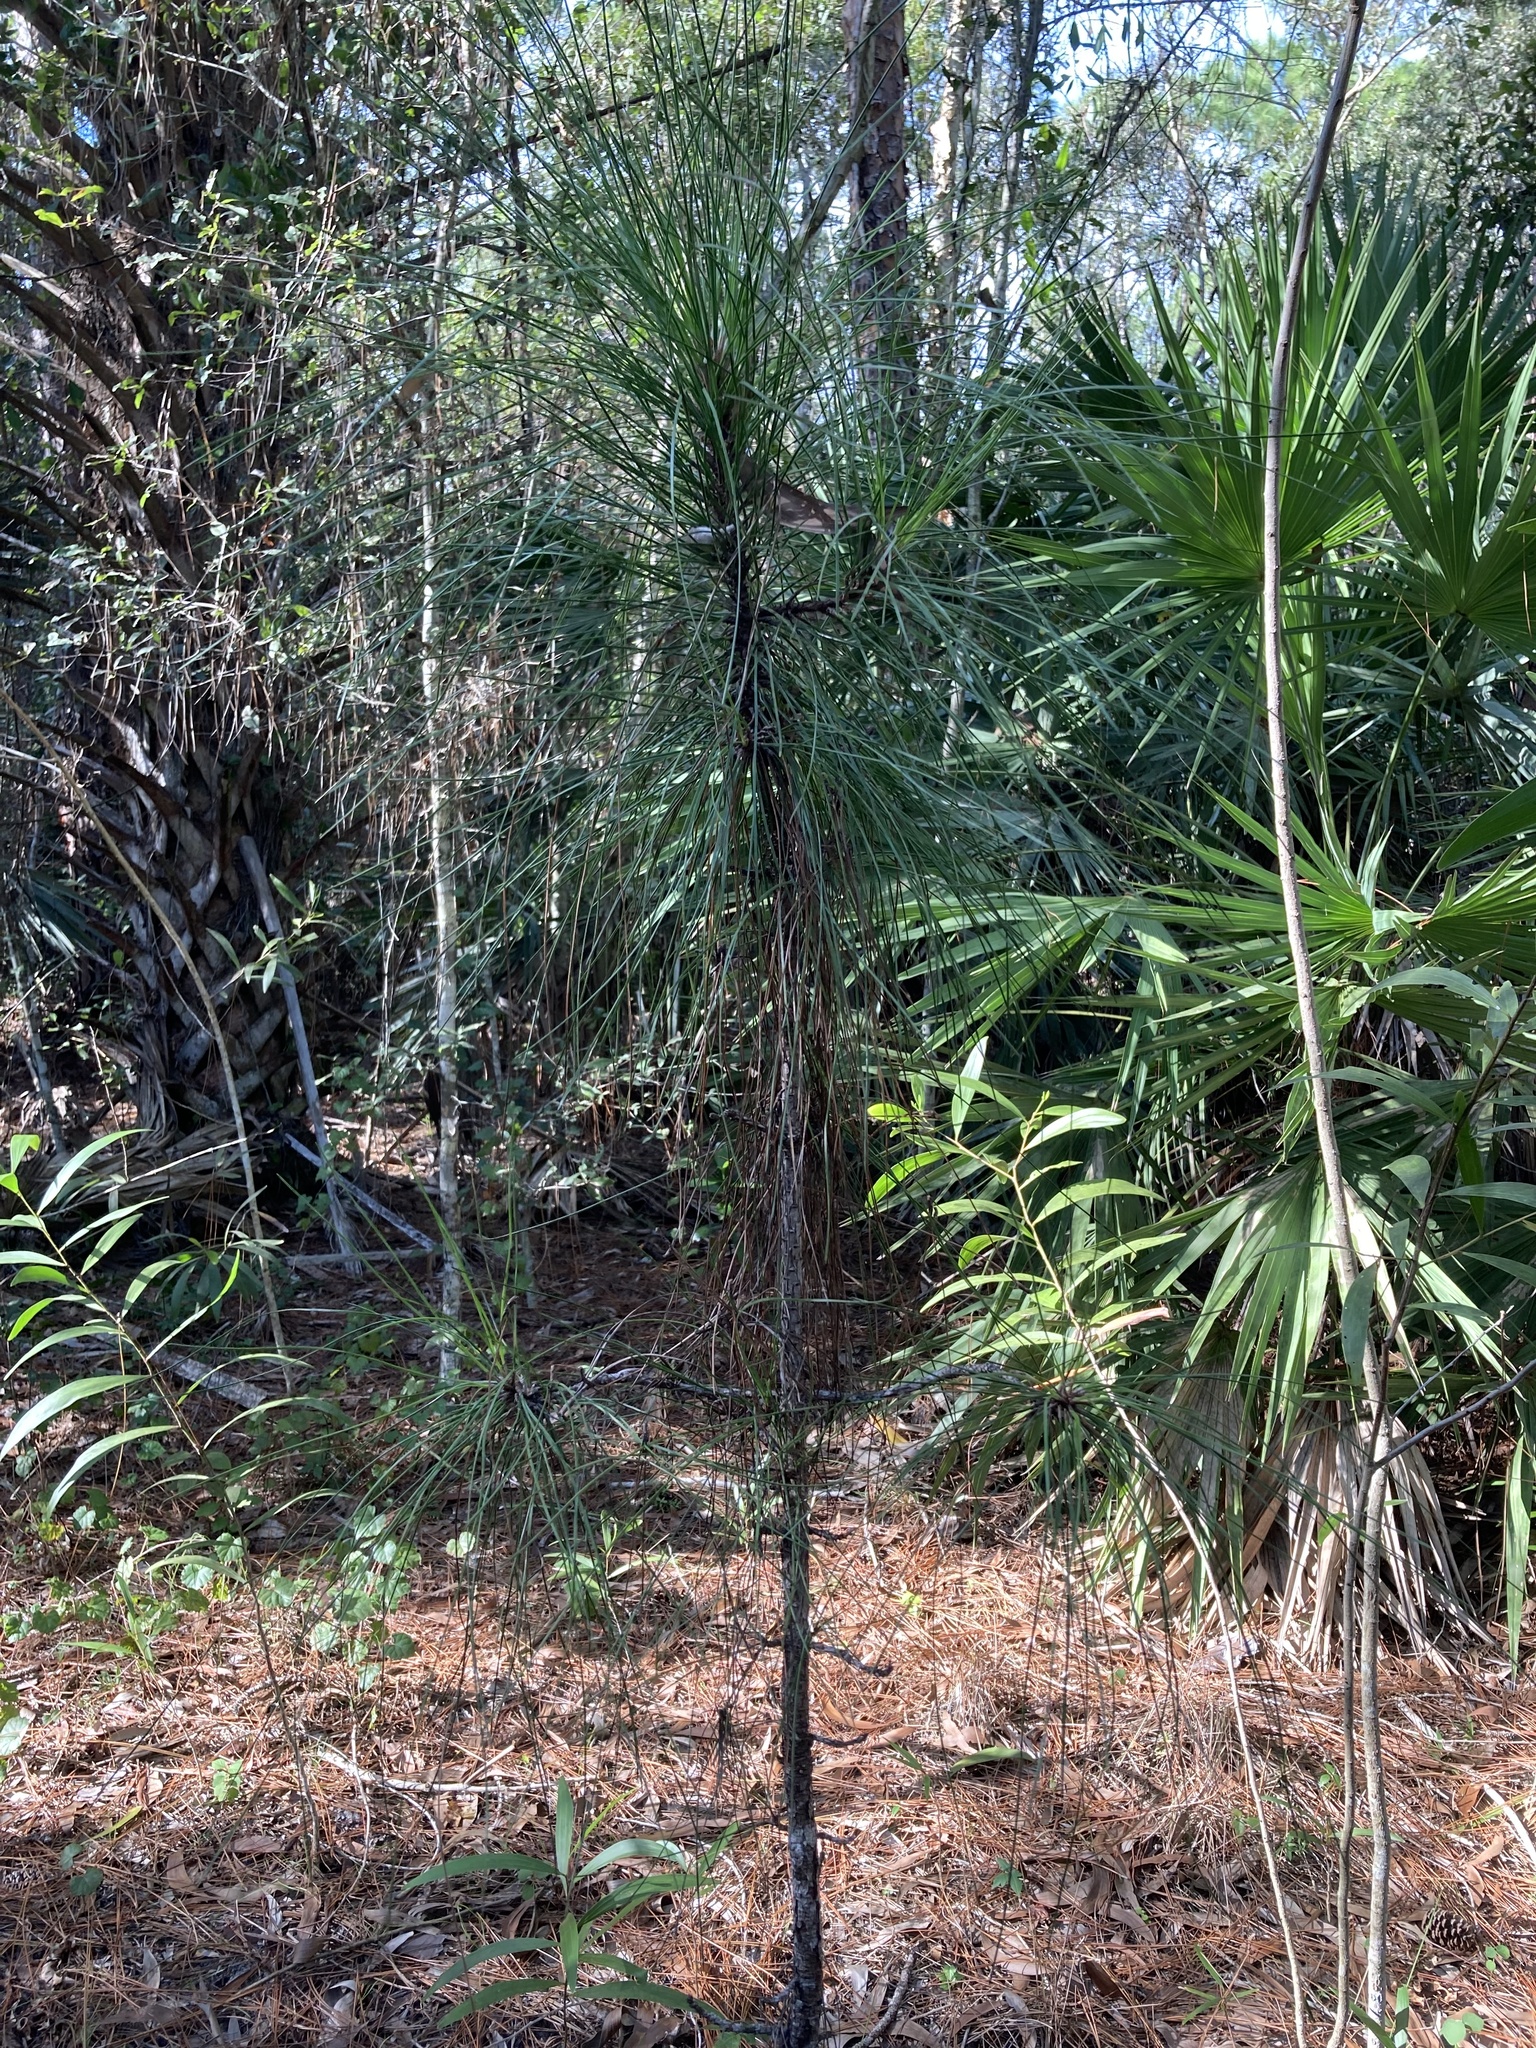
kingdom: Plantae
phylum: Tracheophyta
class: Pinopsida
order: Pinales
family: Pinaceae
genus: Pinus
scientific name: Pinus elliottii
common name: Slash pine
